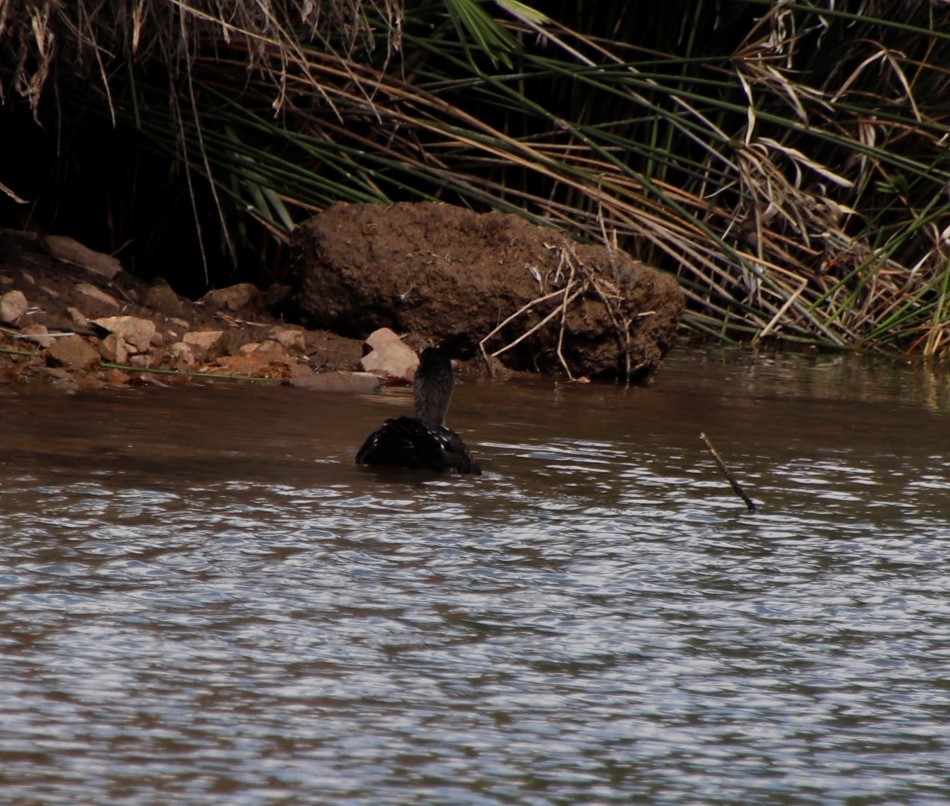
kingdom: Animalia
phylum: Chordata
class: Aves
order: Anseriformes
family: Anatidae
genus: Anas
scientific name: Anas sparsa
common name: African black duck
